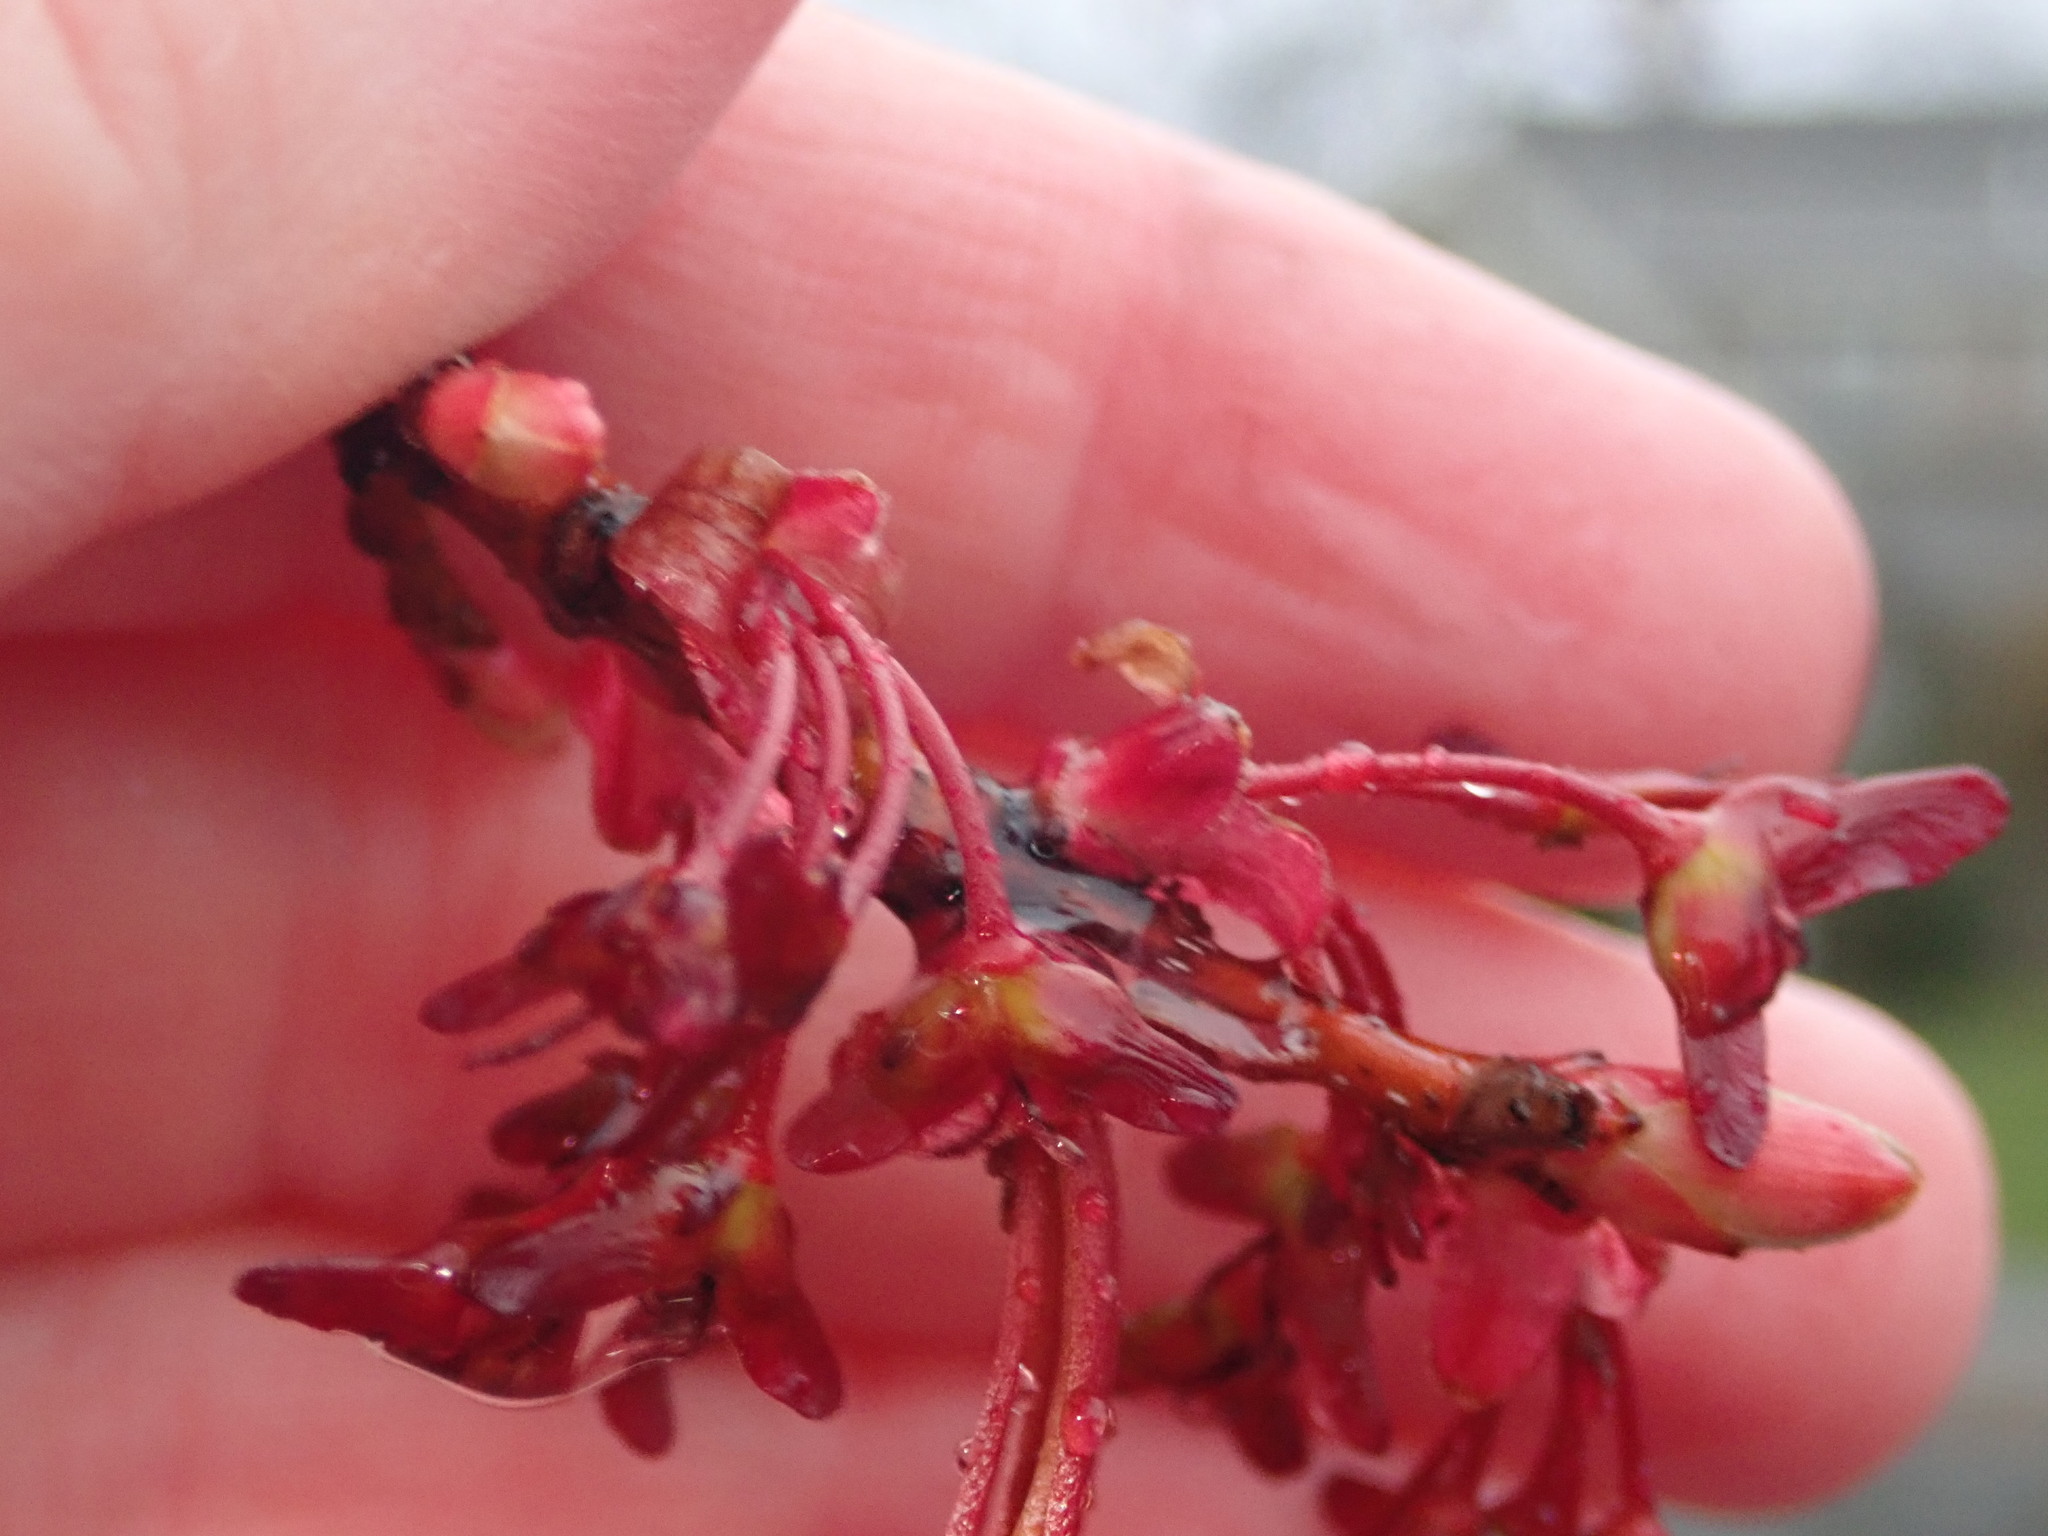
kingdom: Plantae
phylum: Tracheophyta
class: Magnoliopsida
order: Sapindales
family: Sapindaceae
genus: Acer
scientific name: Acer rubrum
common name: Red maple
